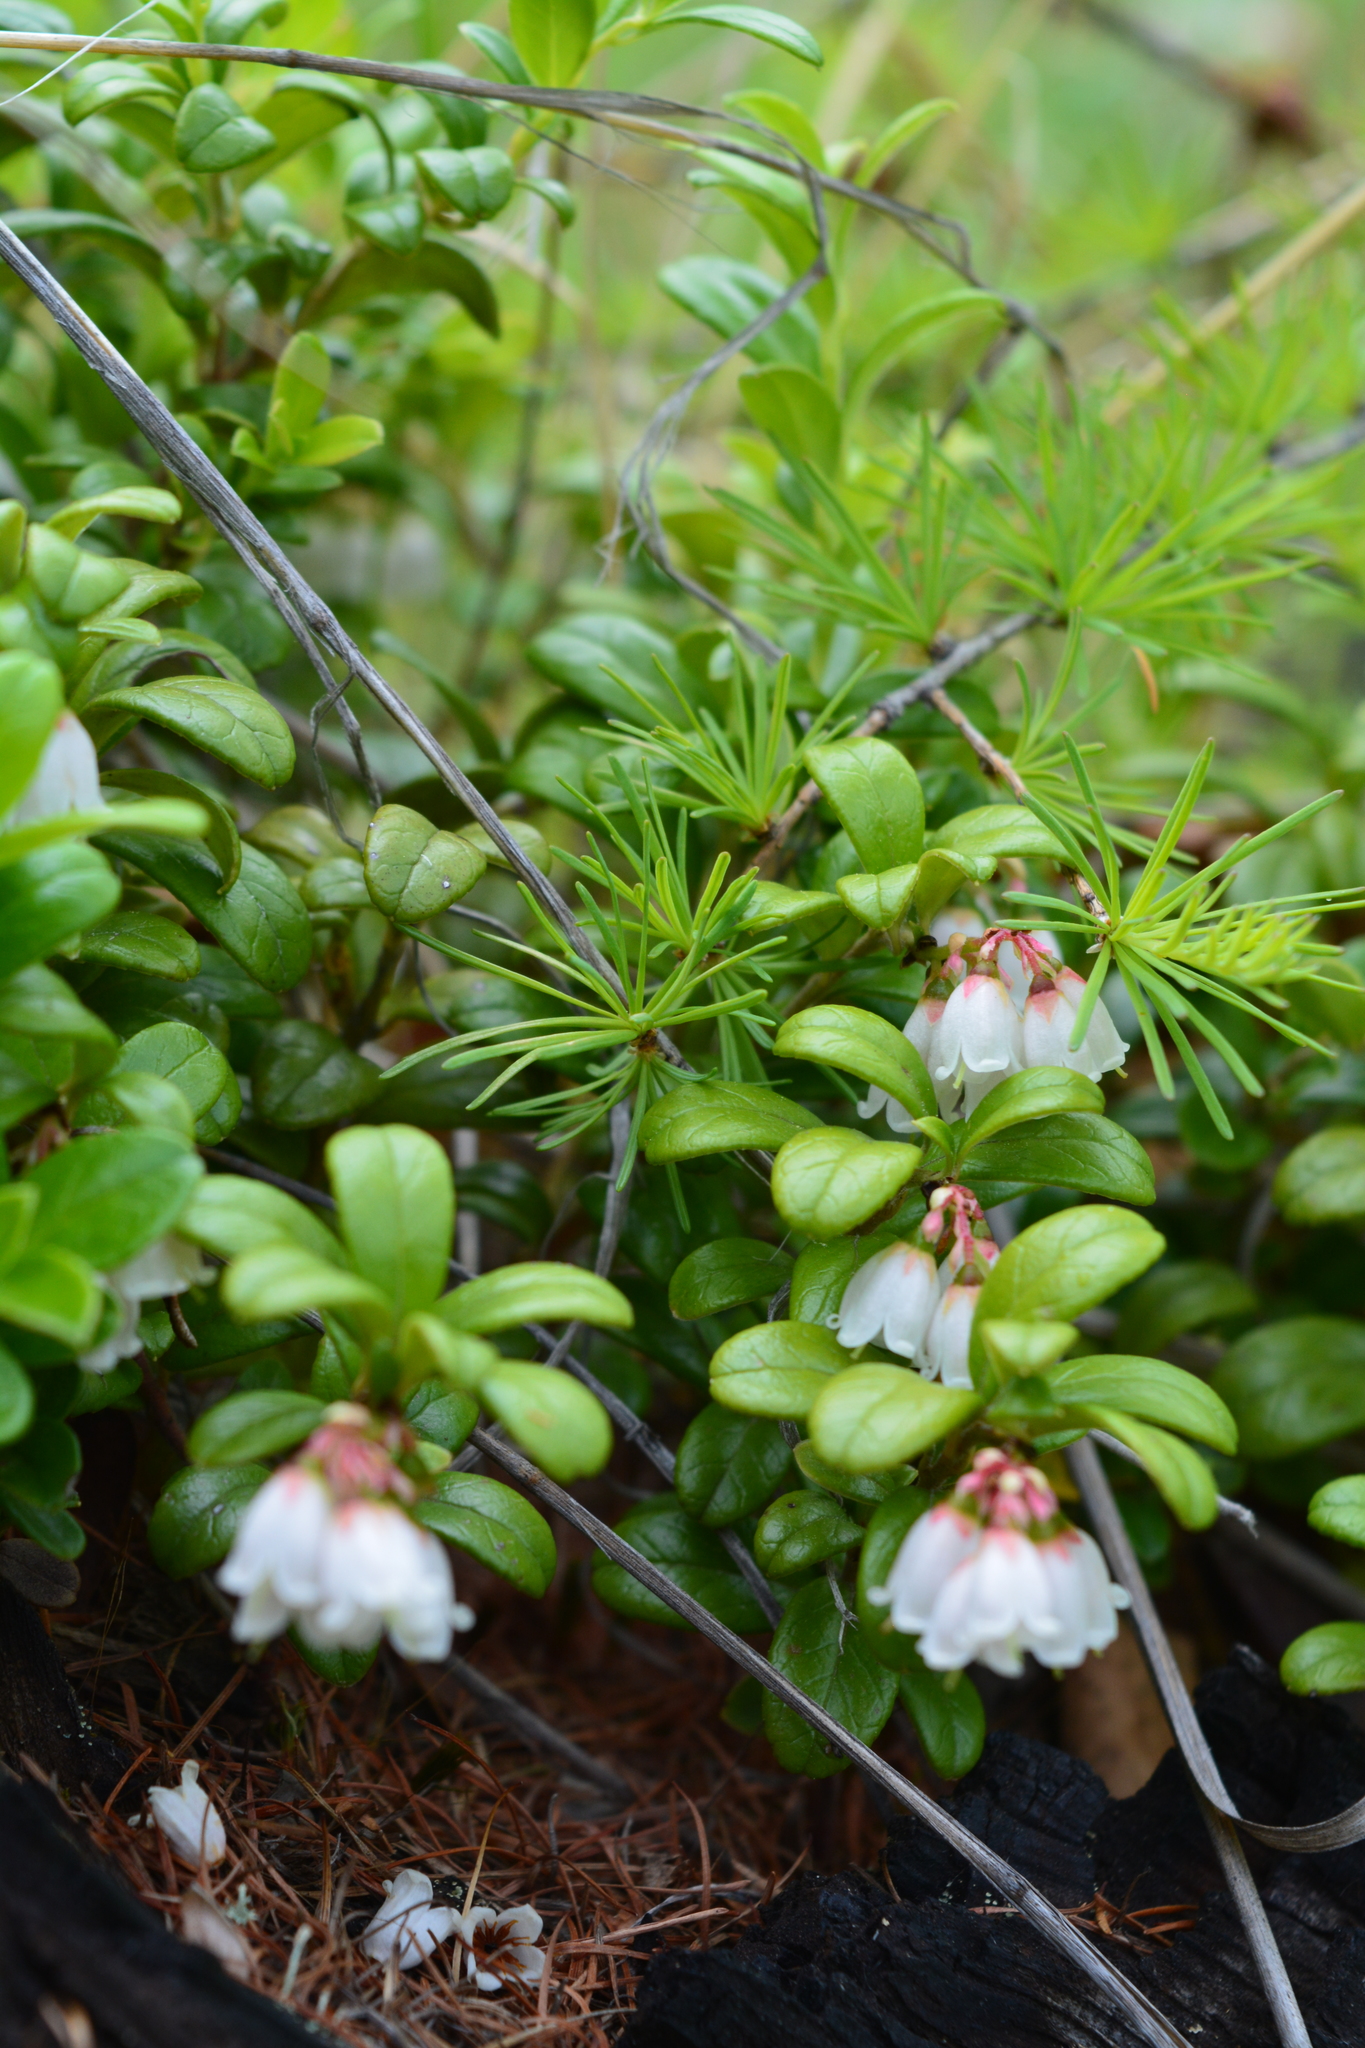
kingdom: Plantae
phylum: Tracheophyta
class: Magnoliopsida
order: Ericales
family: Ericaceae
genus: Vaccinium
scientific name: Vaccinium vitis-idaea
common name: Cowberry
